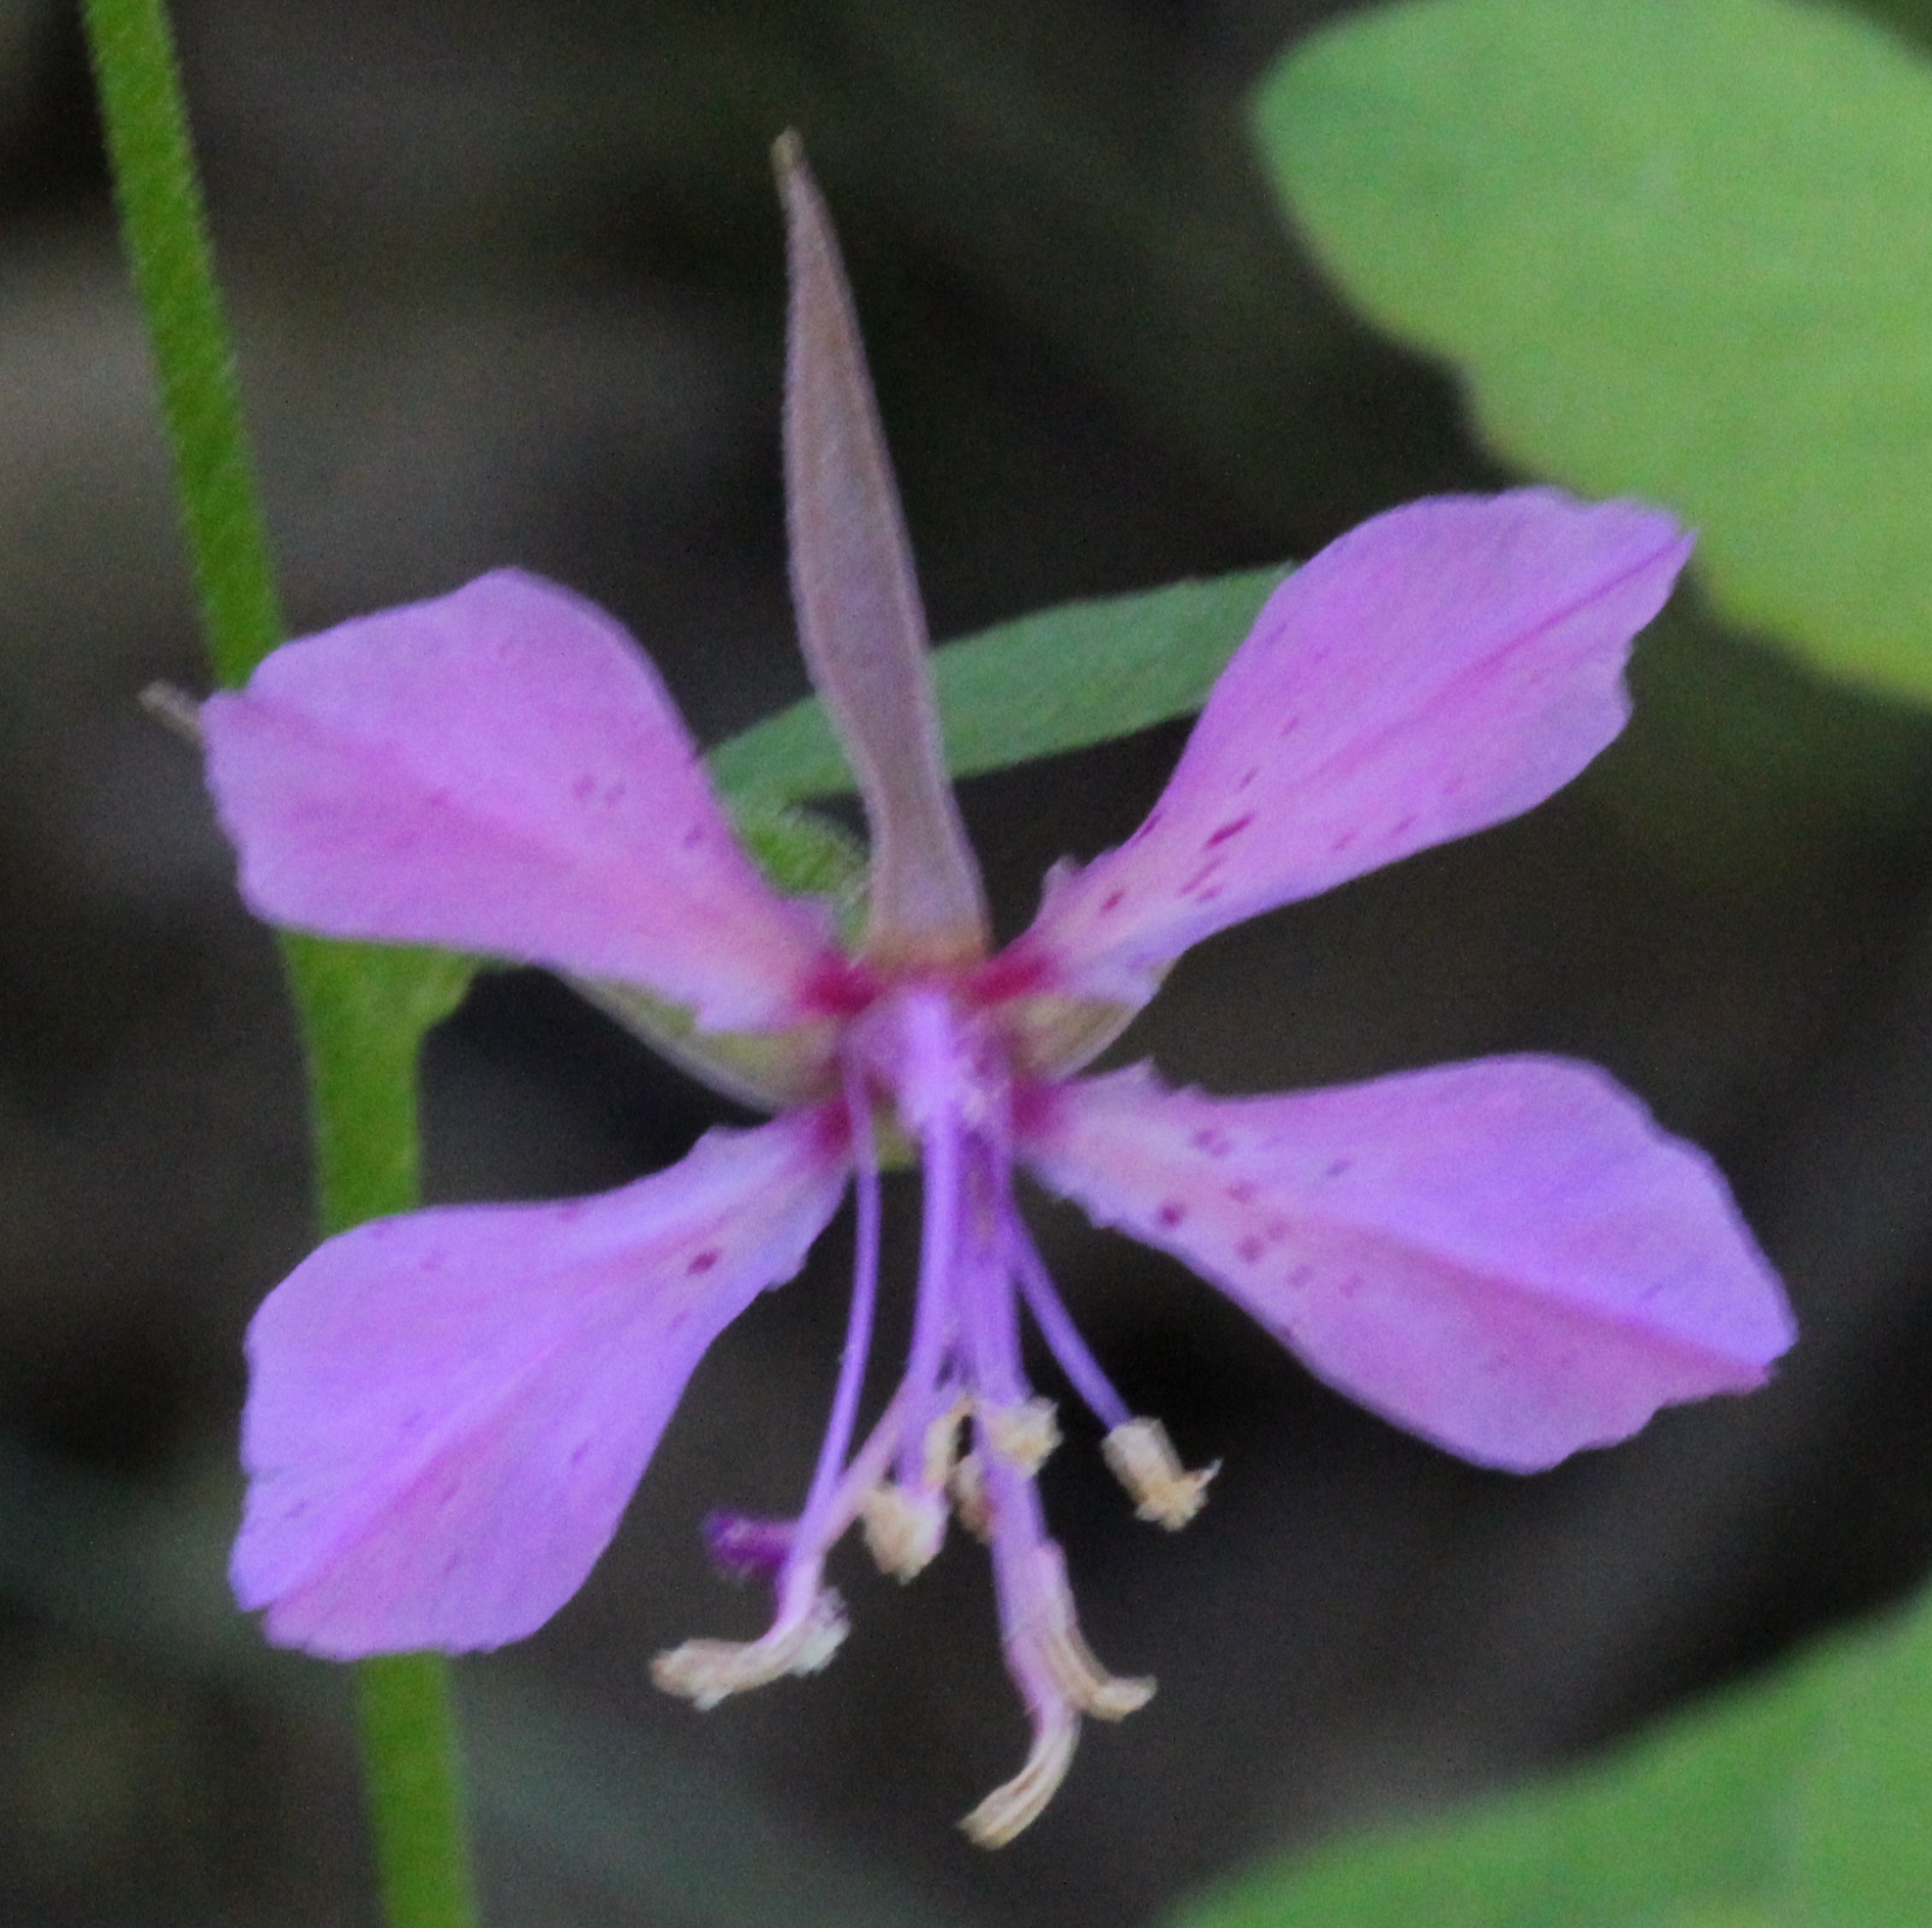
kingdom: Plantae
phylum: Tracheophyta
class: Magnoliopsida
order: Myrtales
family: Onagraceae
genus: Clarkia
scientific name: Clarkia rhomboidea
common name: Broadleaf clarkia
